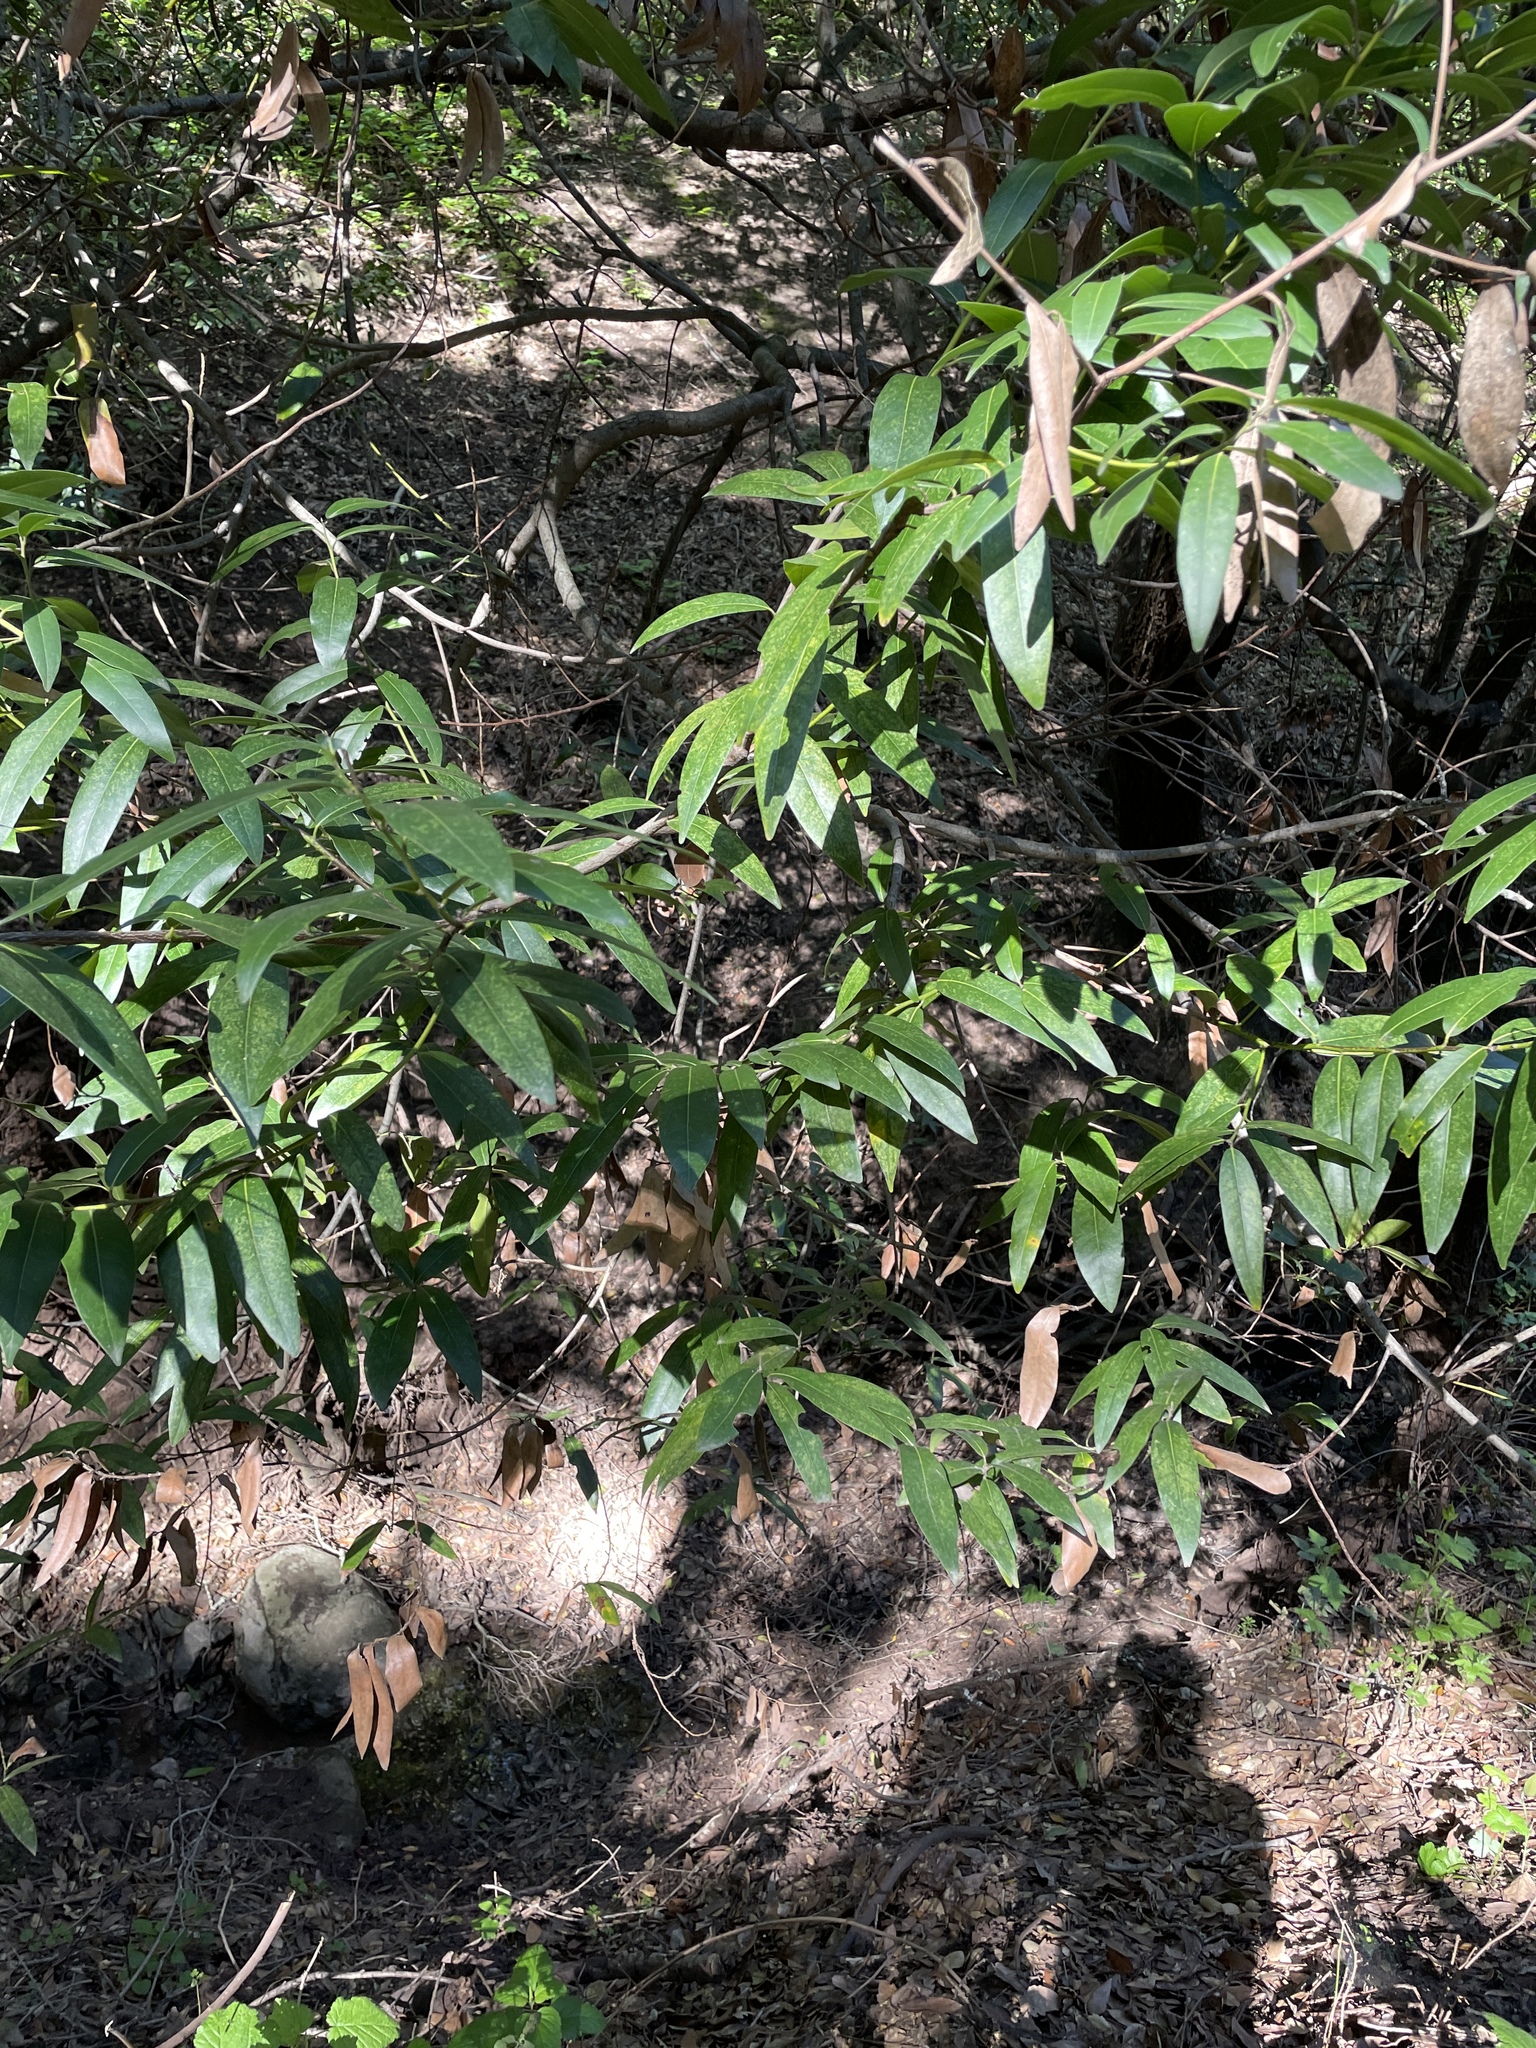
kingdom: Plantae
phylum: Tracheophyta
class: Magnoliopsida
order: Laurales
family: Lauraceae
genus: Umbellularia
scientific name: Umbellularia californica
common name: California bay
